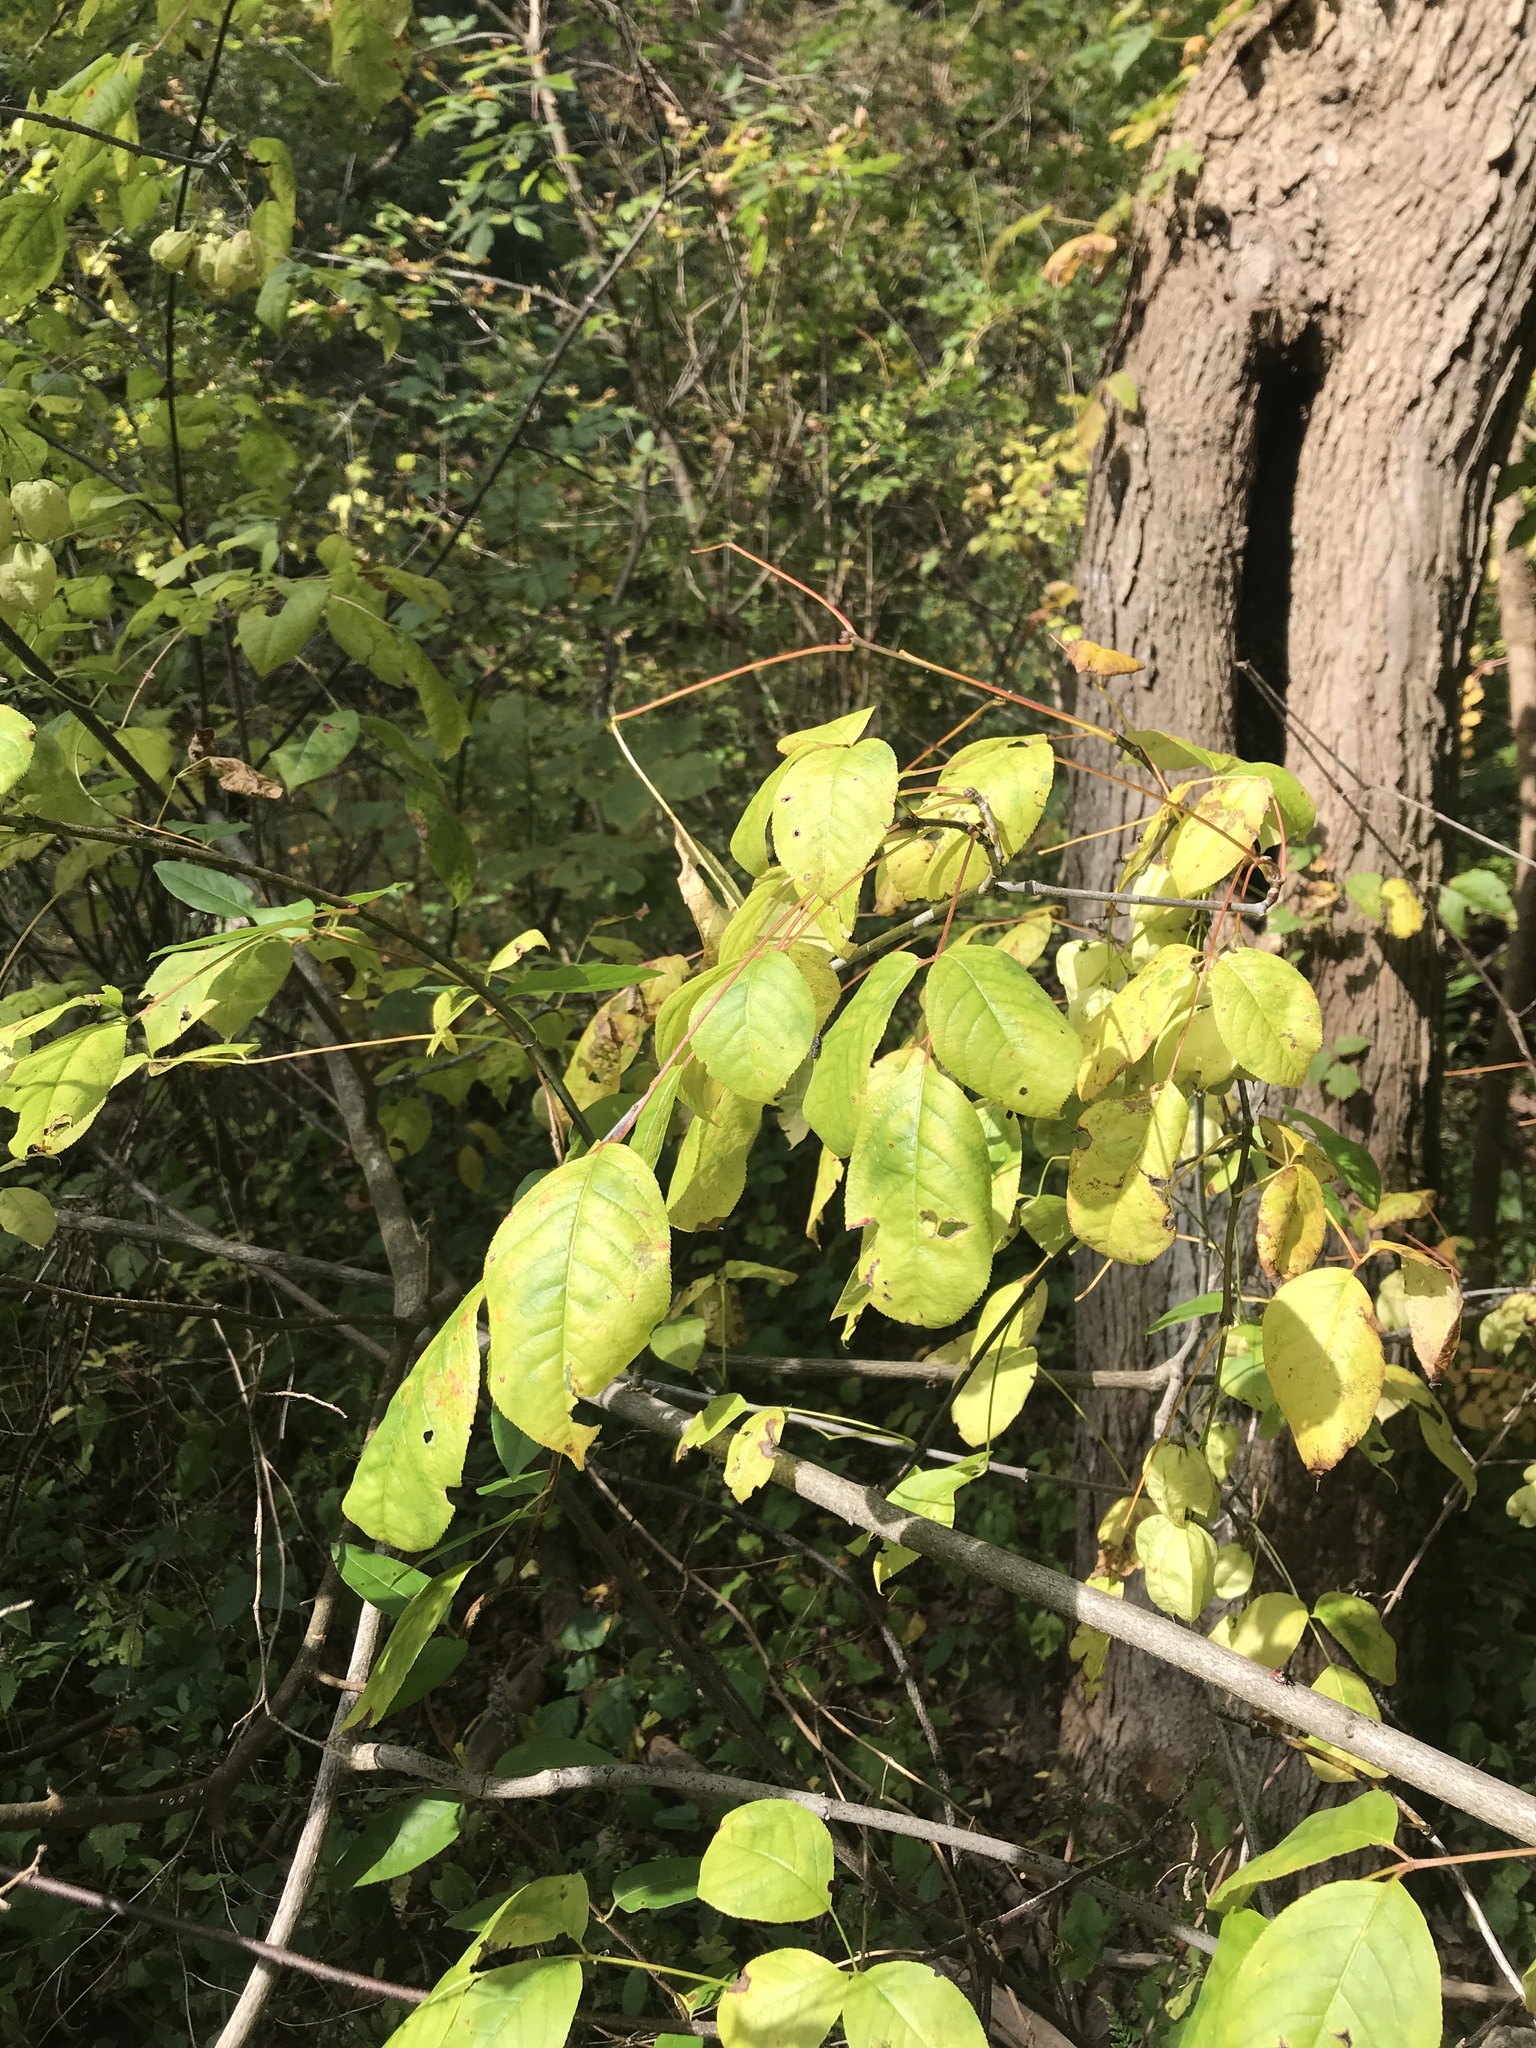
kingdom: Plantae
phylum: Tracheophyta
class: Magnoliopsida
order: Crossosomatales
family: Staphyleaceae
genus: Staphylea
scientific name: Staphylea trifolia
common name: American bladdernut
